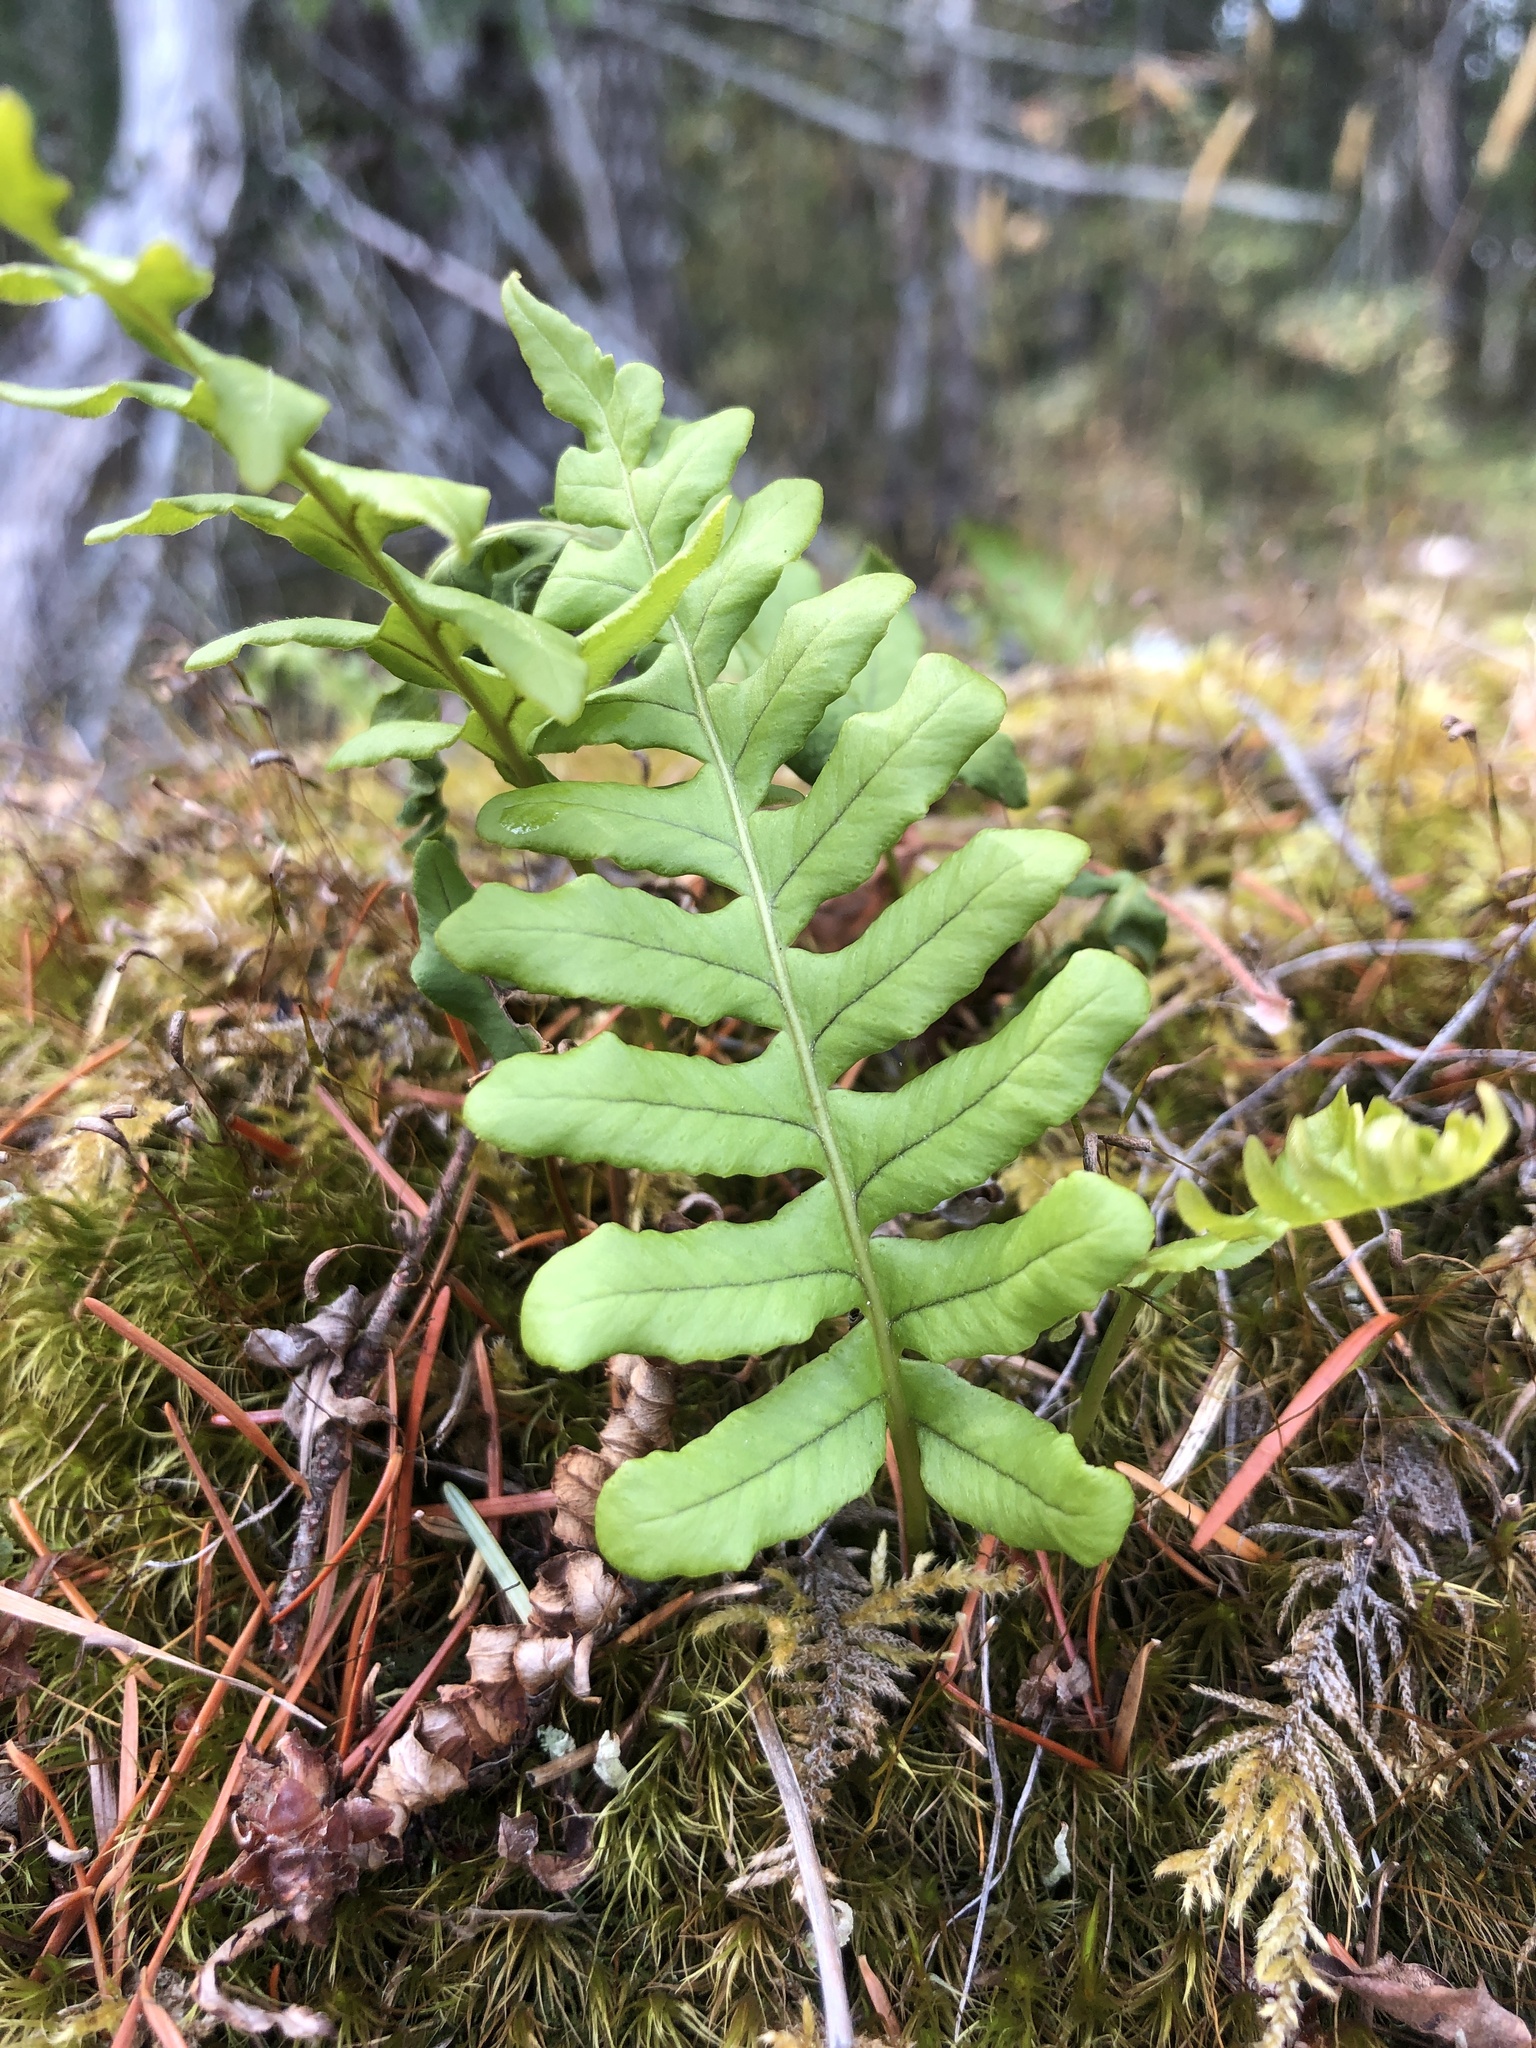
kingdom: Plantae
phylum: Tracheophyta
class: Polypodiopsida
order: Polypodiales
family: Polypodiaceae
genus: Polypodium
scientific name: Polypodium glycyrrhiza
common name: Licorice fern
